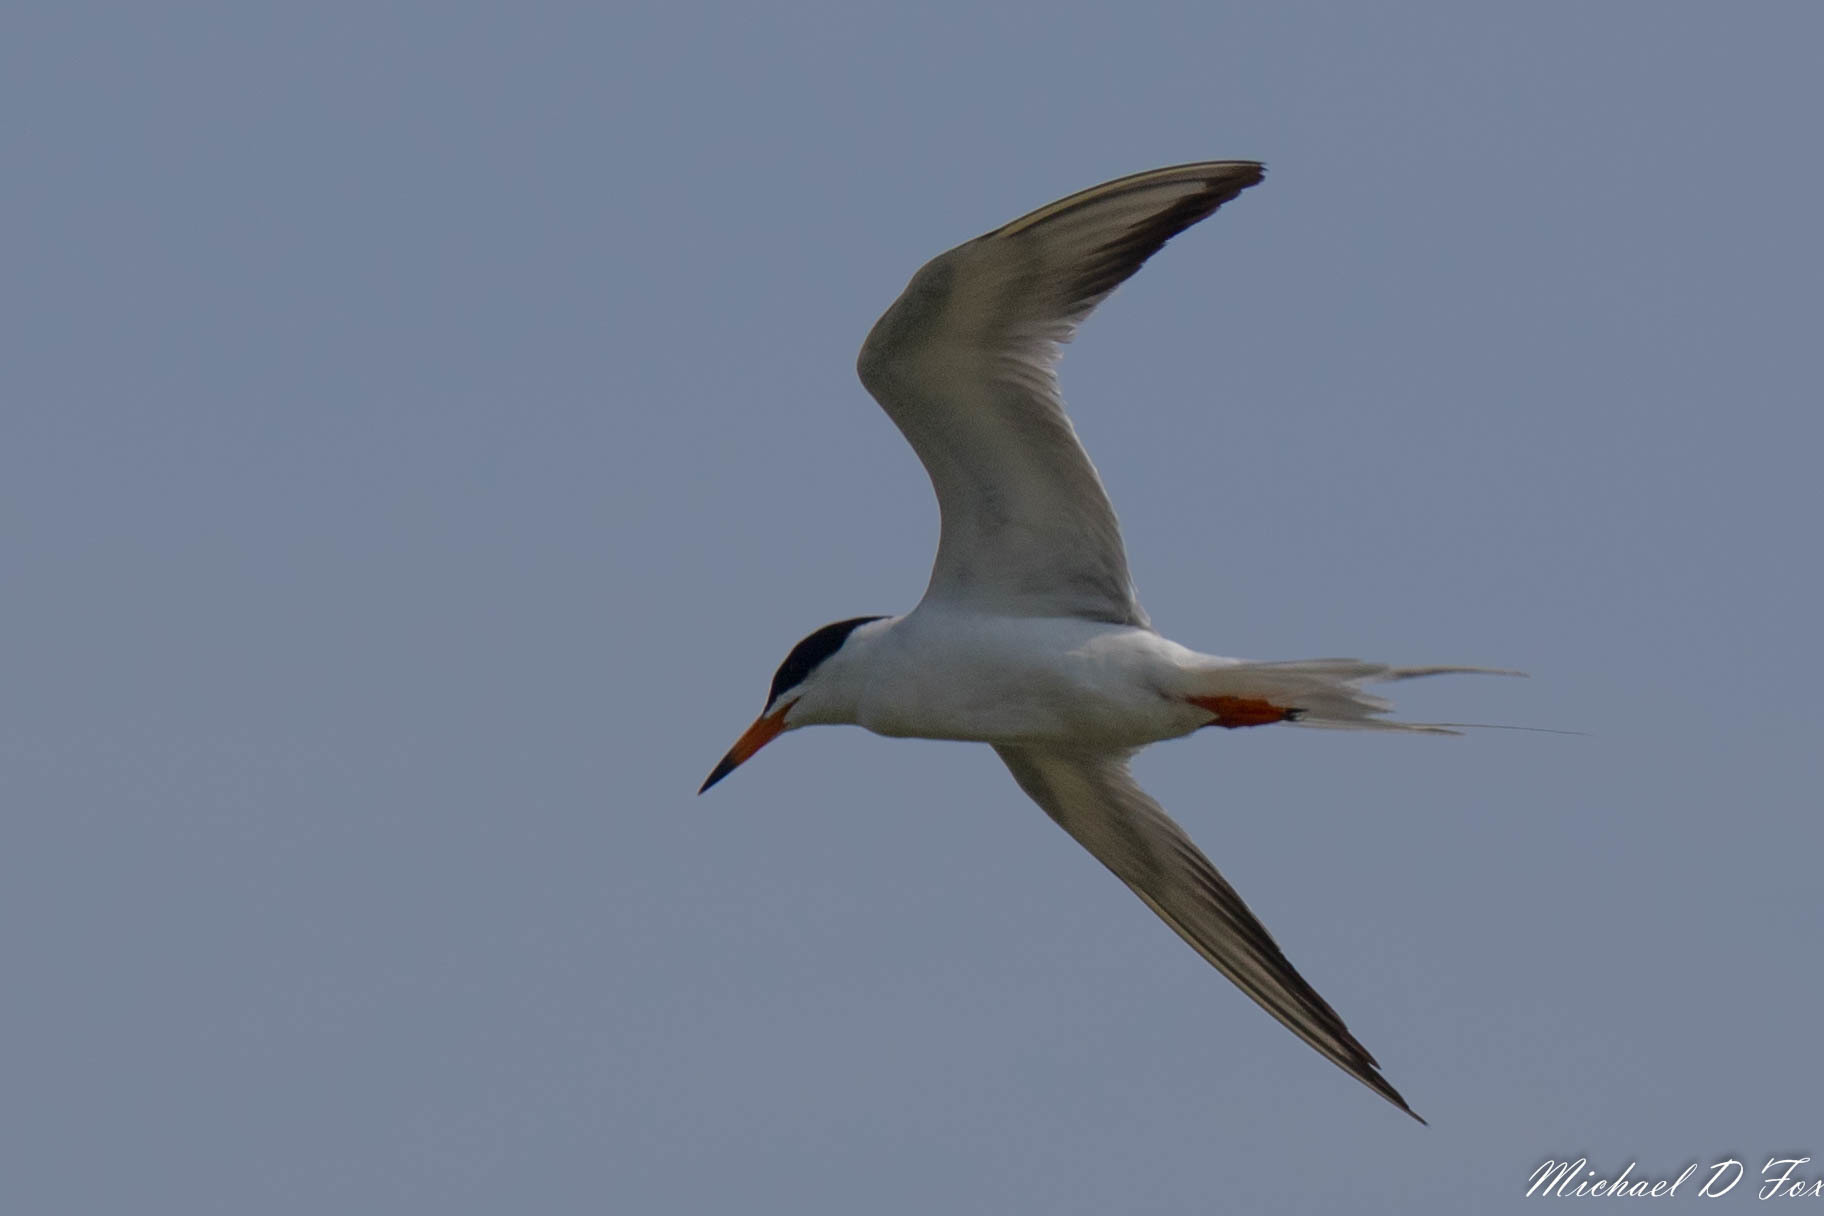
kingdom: Animalia
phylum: Chordata
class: Aves
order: Charadriiformes
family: Laridae
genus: Sterna
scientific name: Sterna forsteri
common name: Forster's tern
